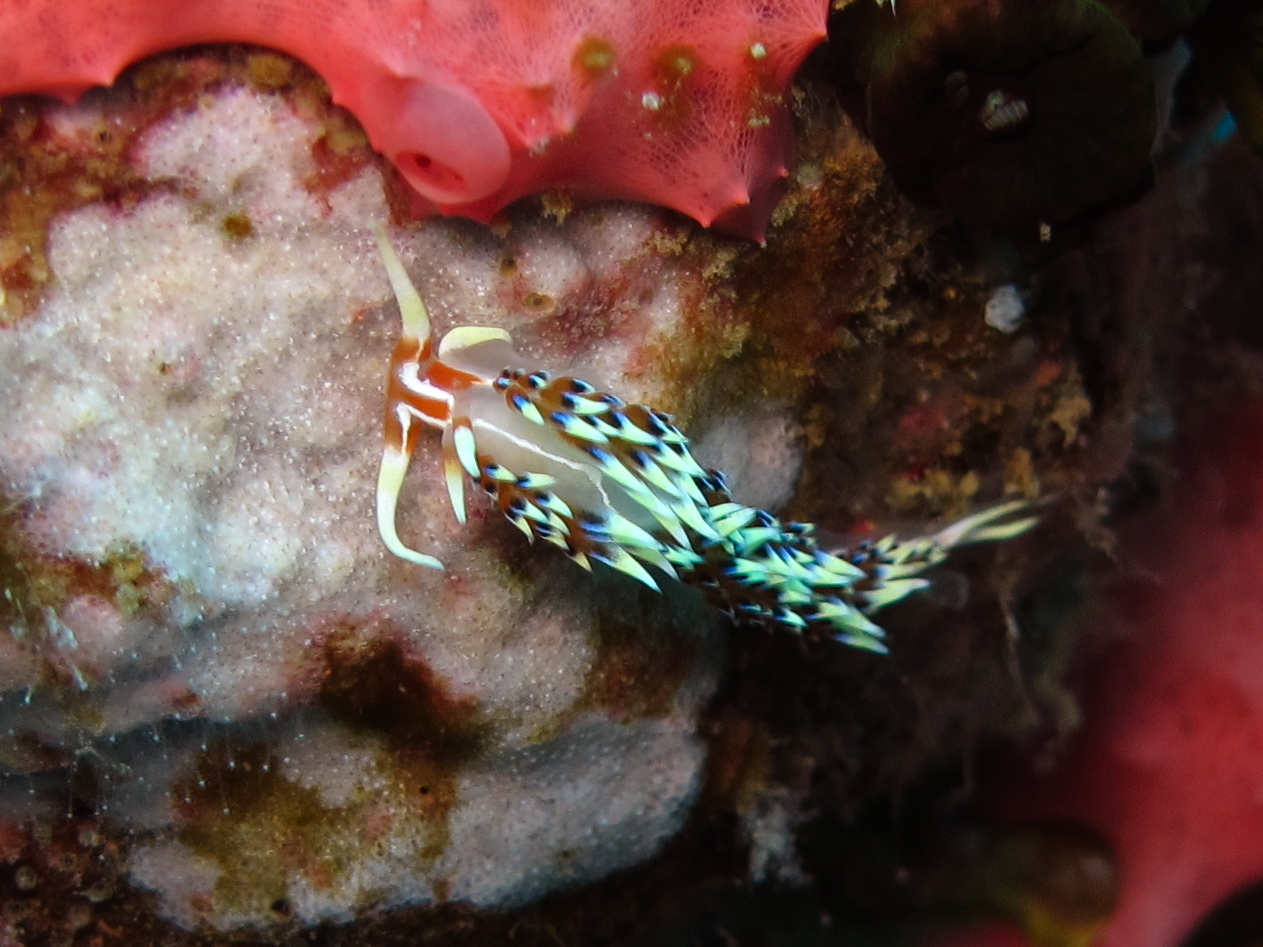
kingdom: Animalia
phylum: Mollusca
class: Gastropoda
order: Nudibranchia
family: Facelinidae
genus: Caloria
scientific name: Caloria indica
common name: Sea slug
